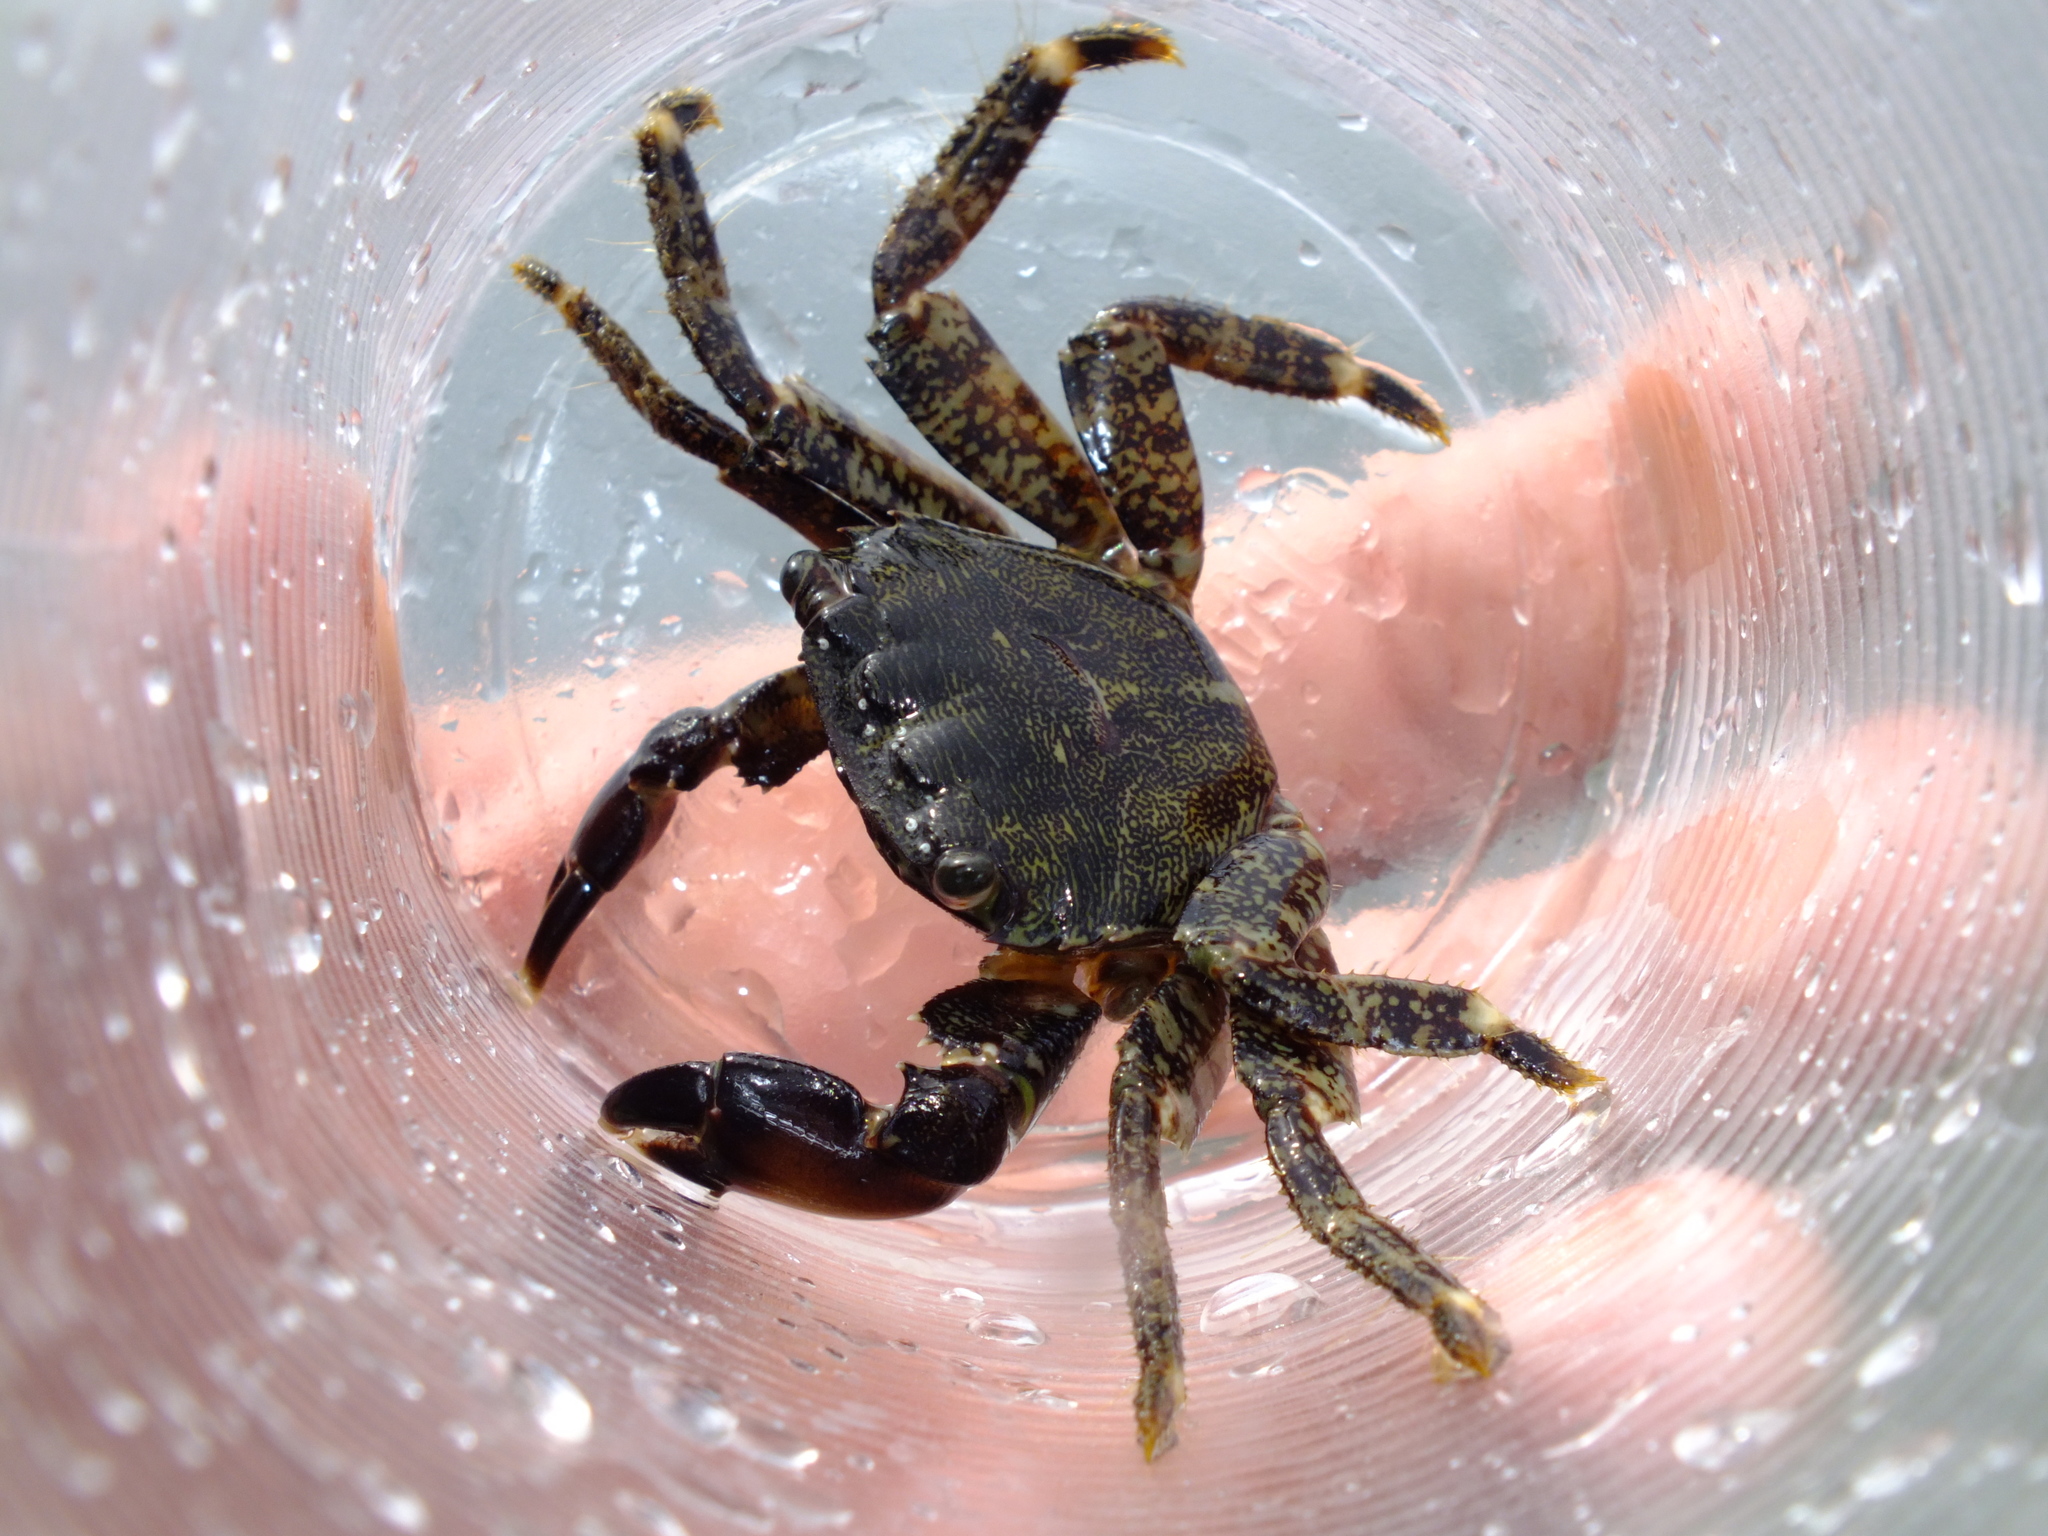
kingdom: Animalia
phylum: Arthropoda
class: Malacostraca
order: Decapoda
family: Grapsidae
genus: Pachygrapsus
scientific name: Pachygrapsus marmoratus
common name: Marbled rock crab
